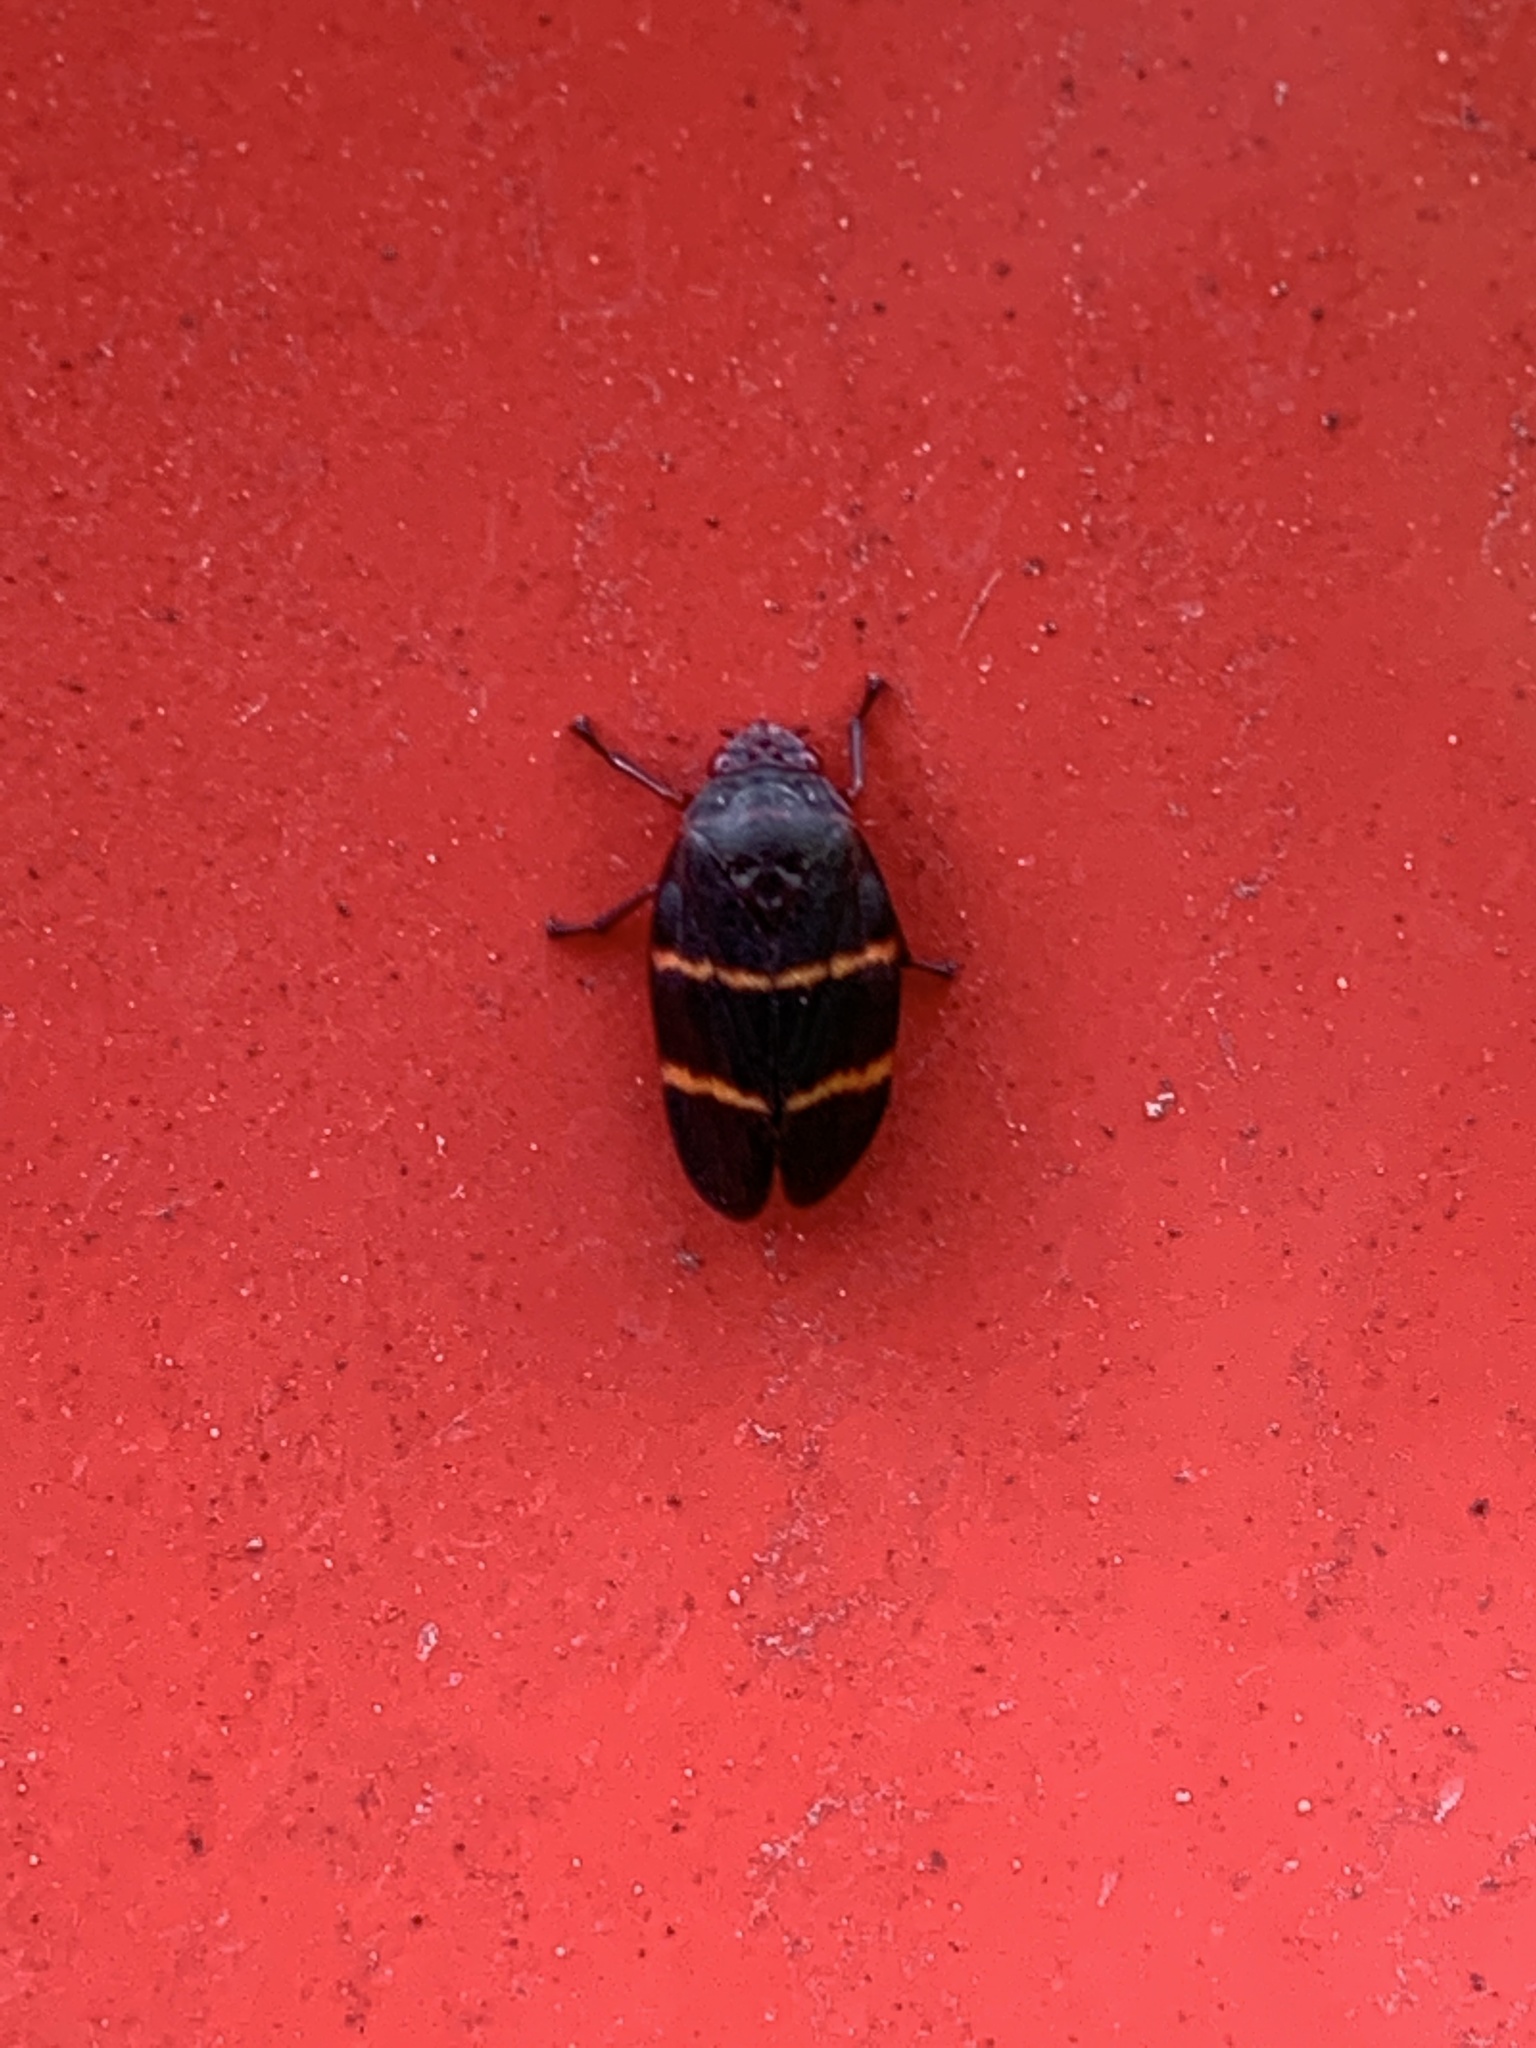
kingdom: Animalia
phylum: Arthropoda
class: Insecta
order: Hemiptera
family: Cercopidae
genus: Prosapia
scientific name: Prosapia bicincta
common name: Twolined spittlebug
